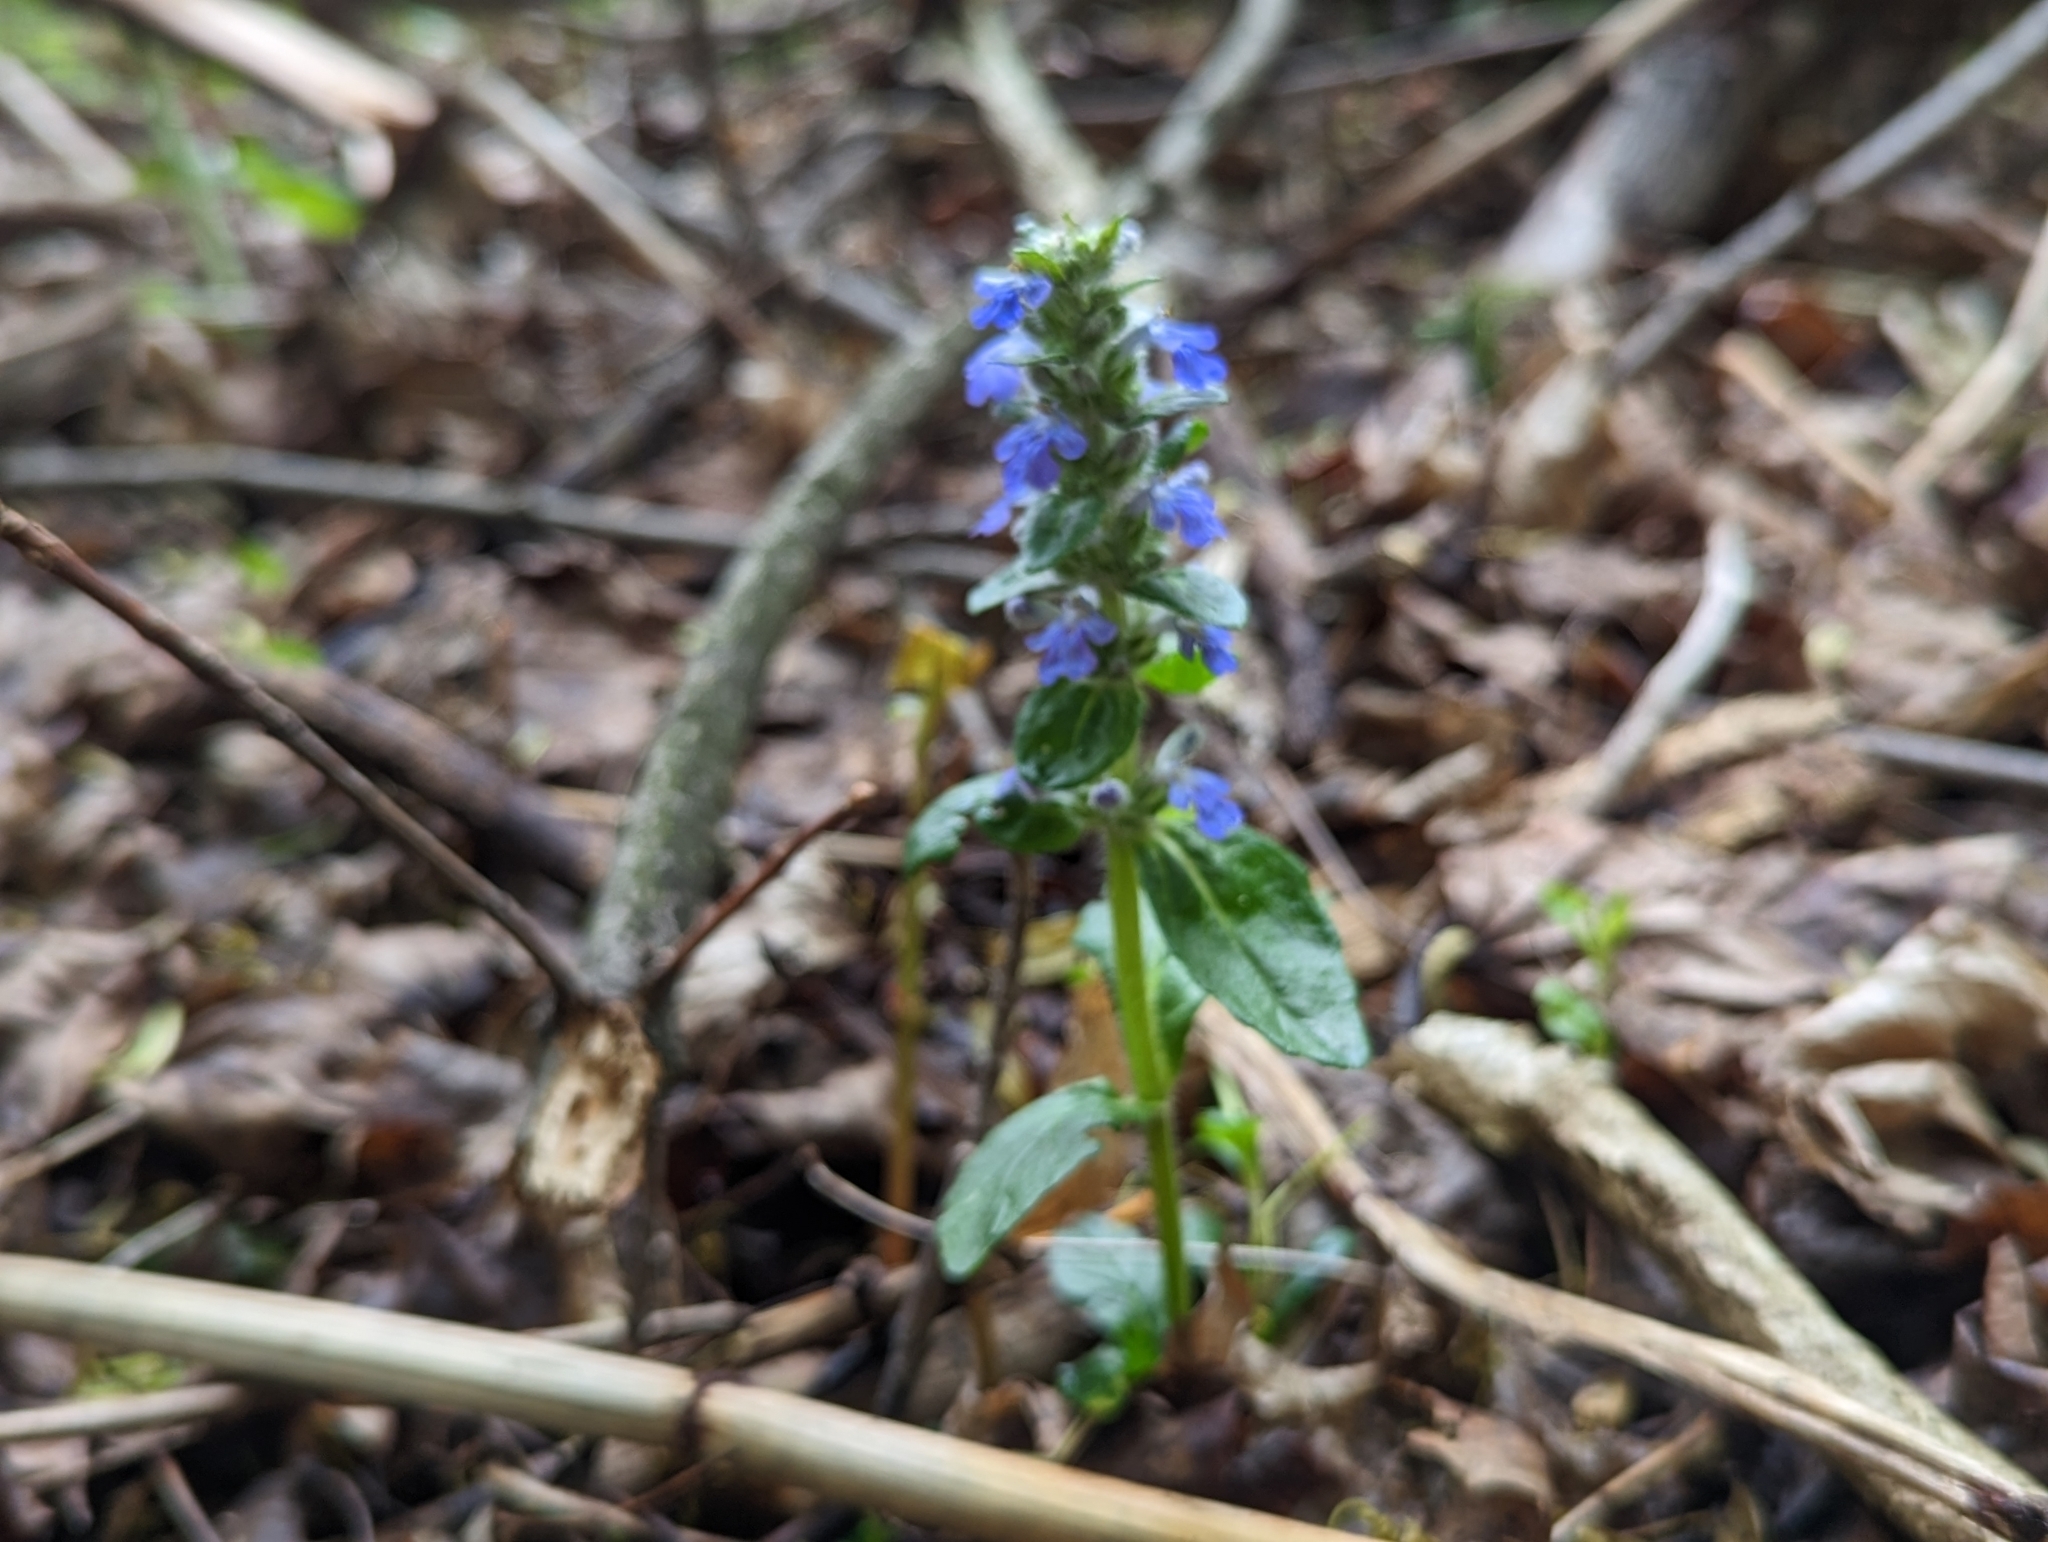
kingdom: Plantae
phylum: Tracheophyta
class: Magnoliopsida
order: Lamiales
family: Lamiaceae
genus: Ajuga
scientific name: Ajuga reptans
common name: Bugle
